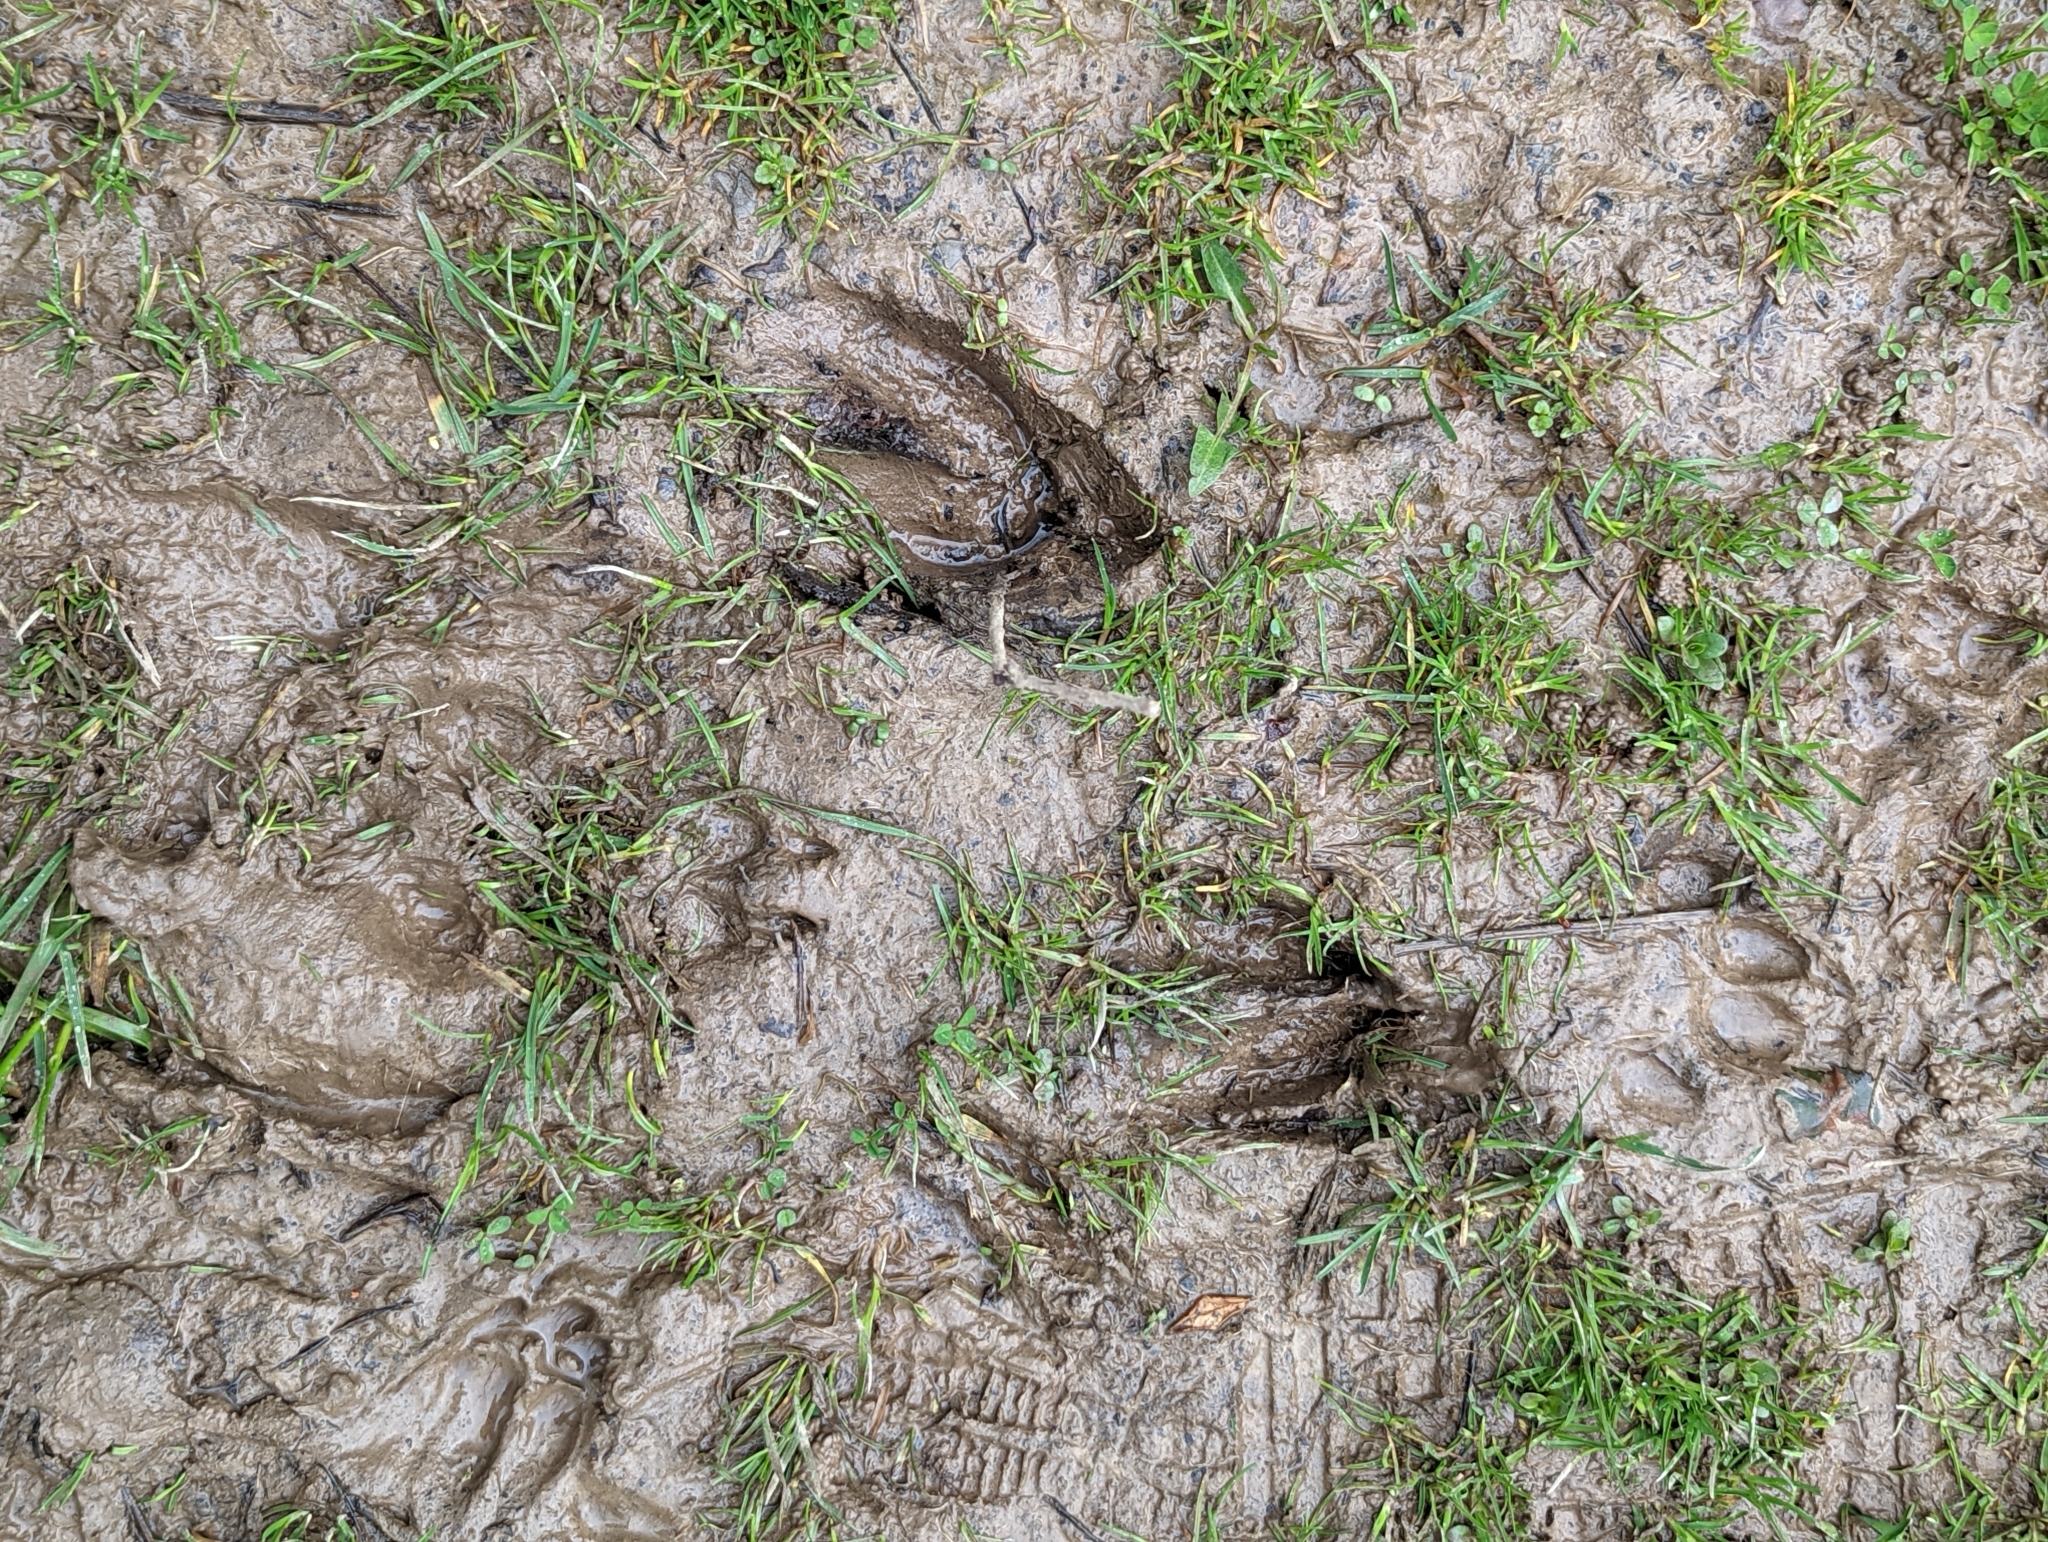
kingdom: Animalia
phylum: Chordata
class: Mammalia
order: Artiodactyla
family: Cervidae
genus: Odocoileus
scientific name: Odocoileus virginianus
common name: White-tailed deer
